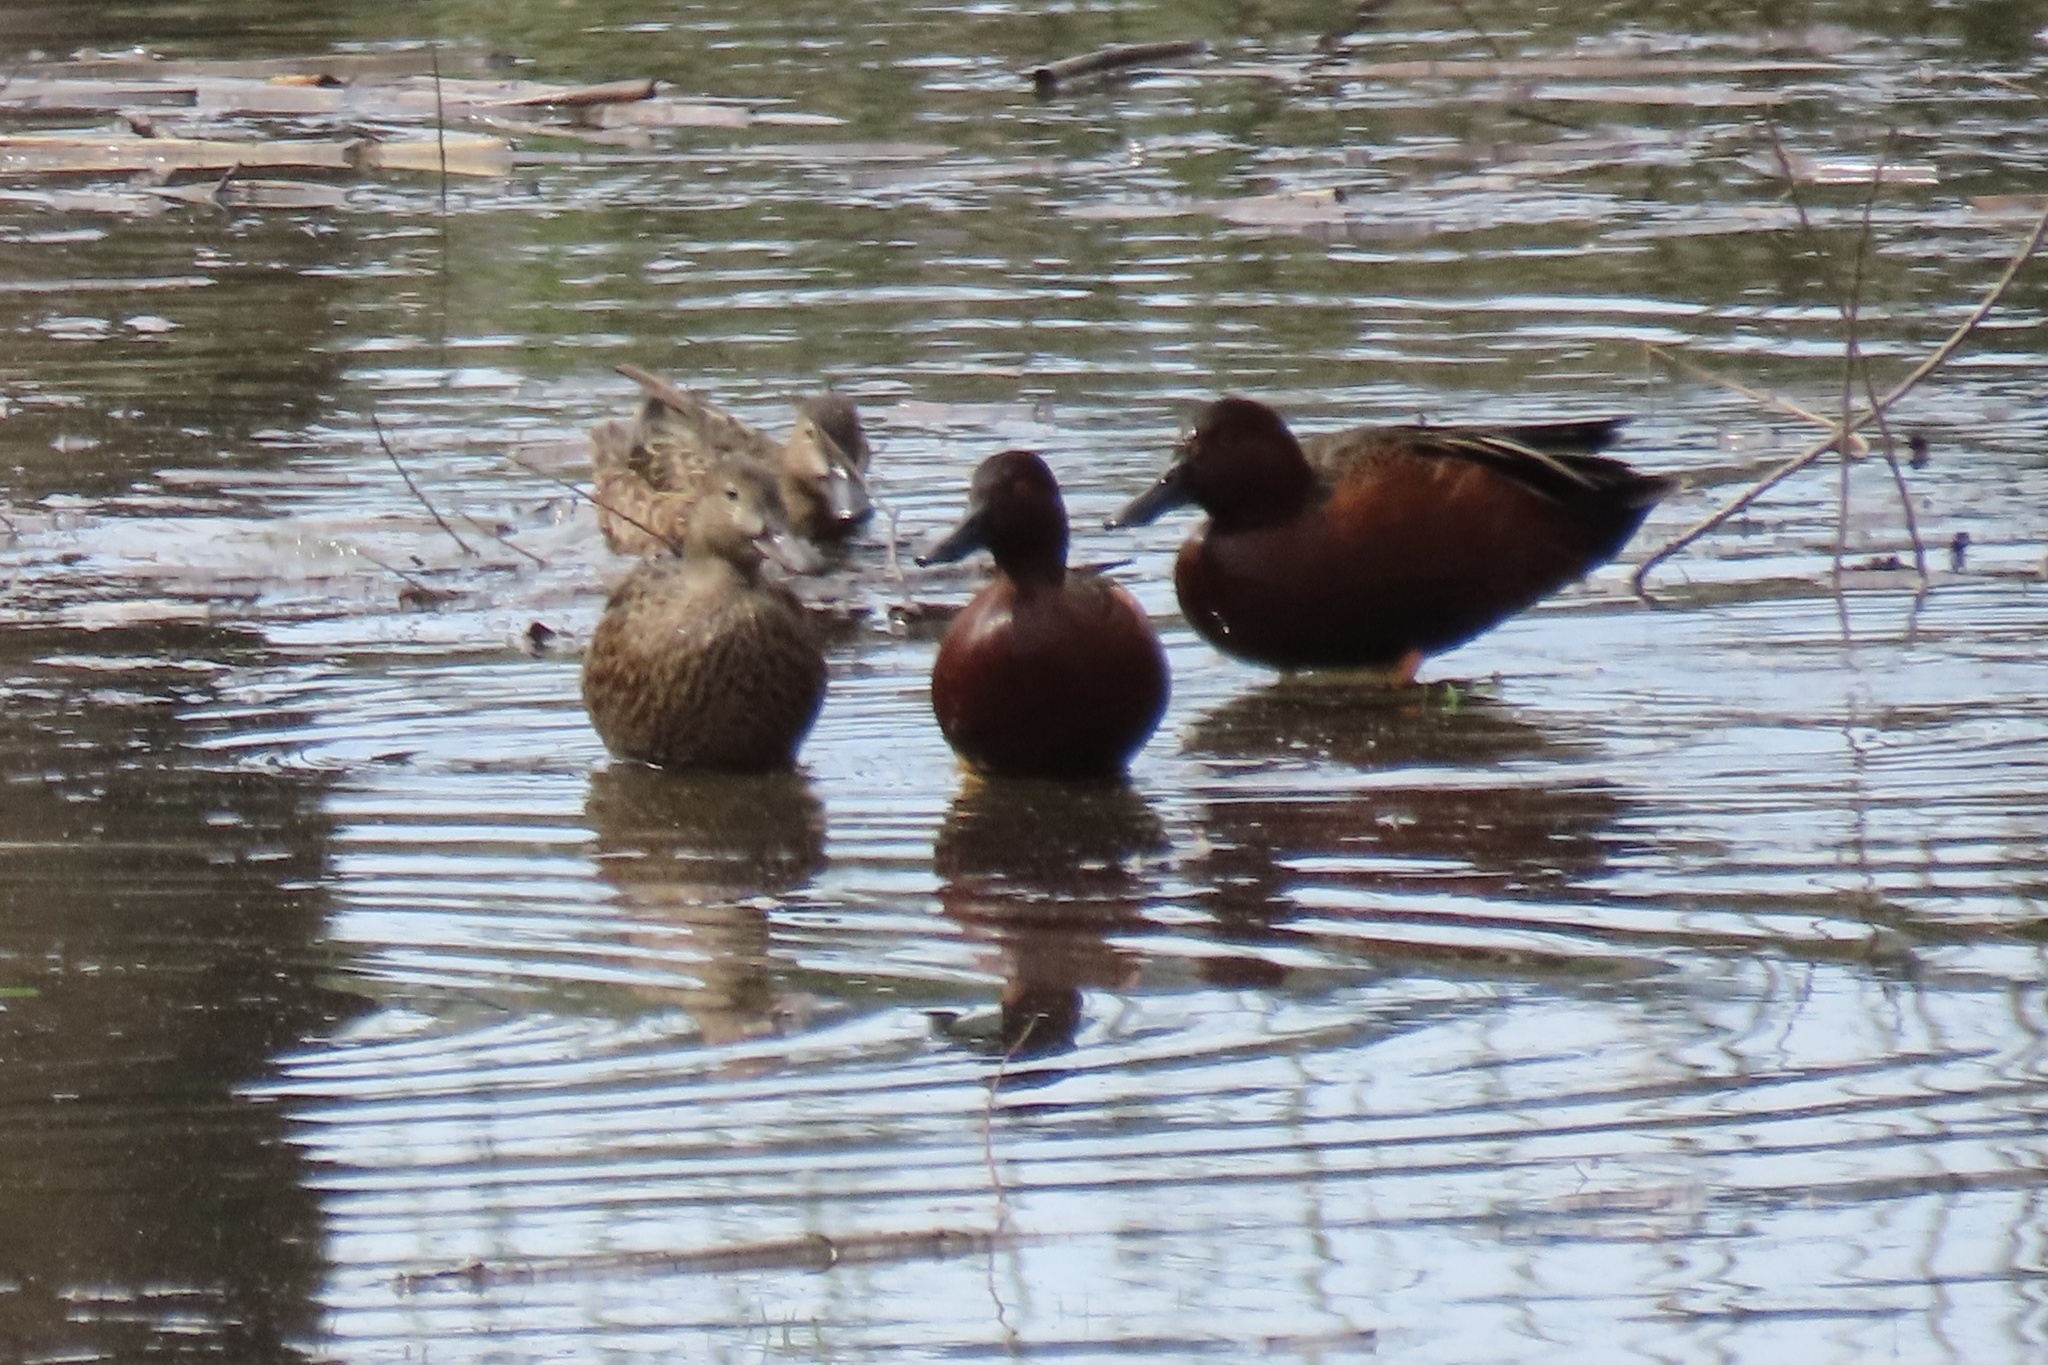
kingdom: Animalia
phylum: Chordata
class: Aves
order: Anseriformes
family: Anatidae
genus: Spatula
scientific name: Spatula cyanoptera
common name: Cinnamon teal
